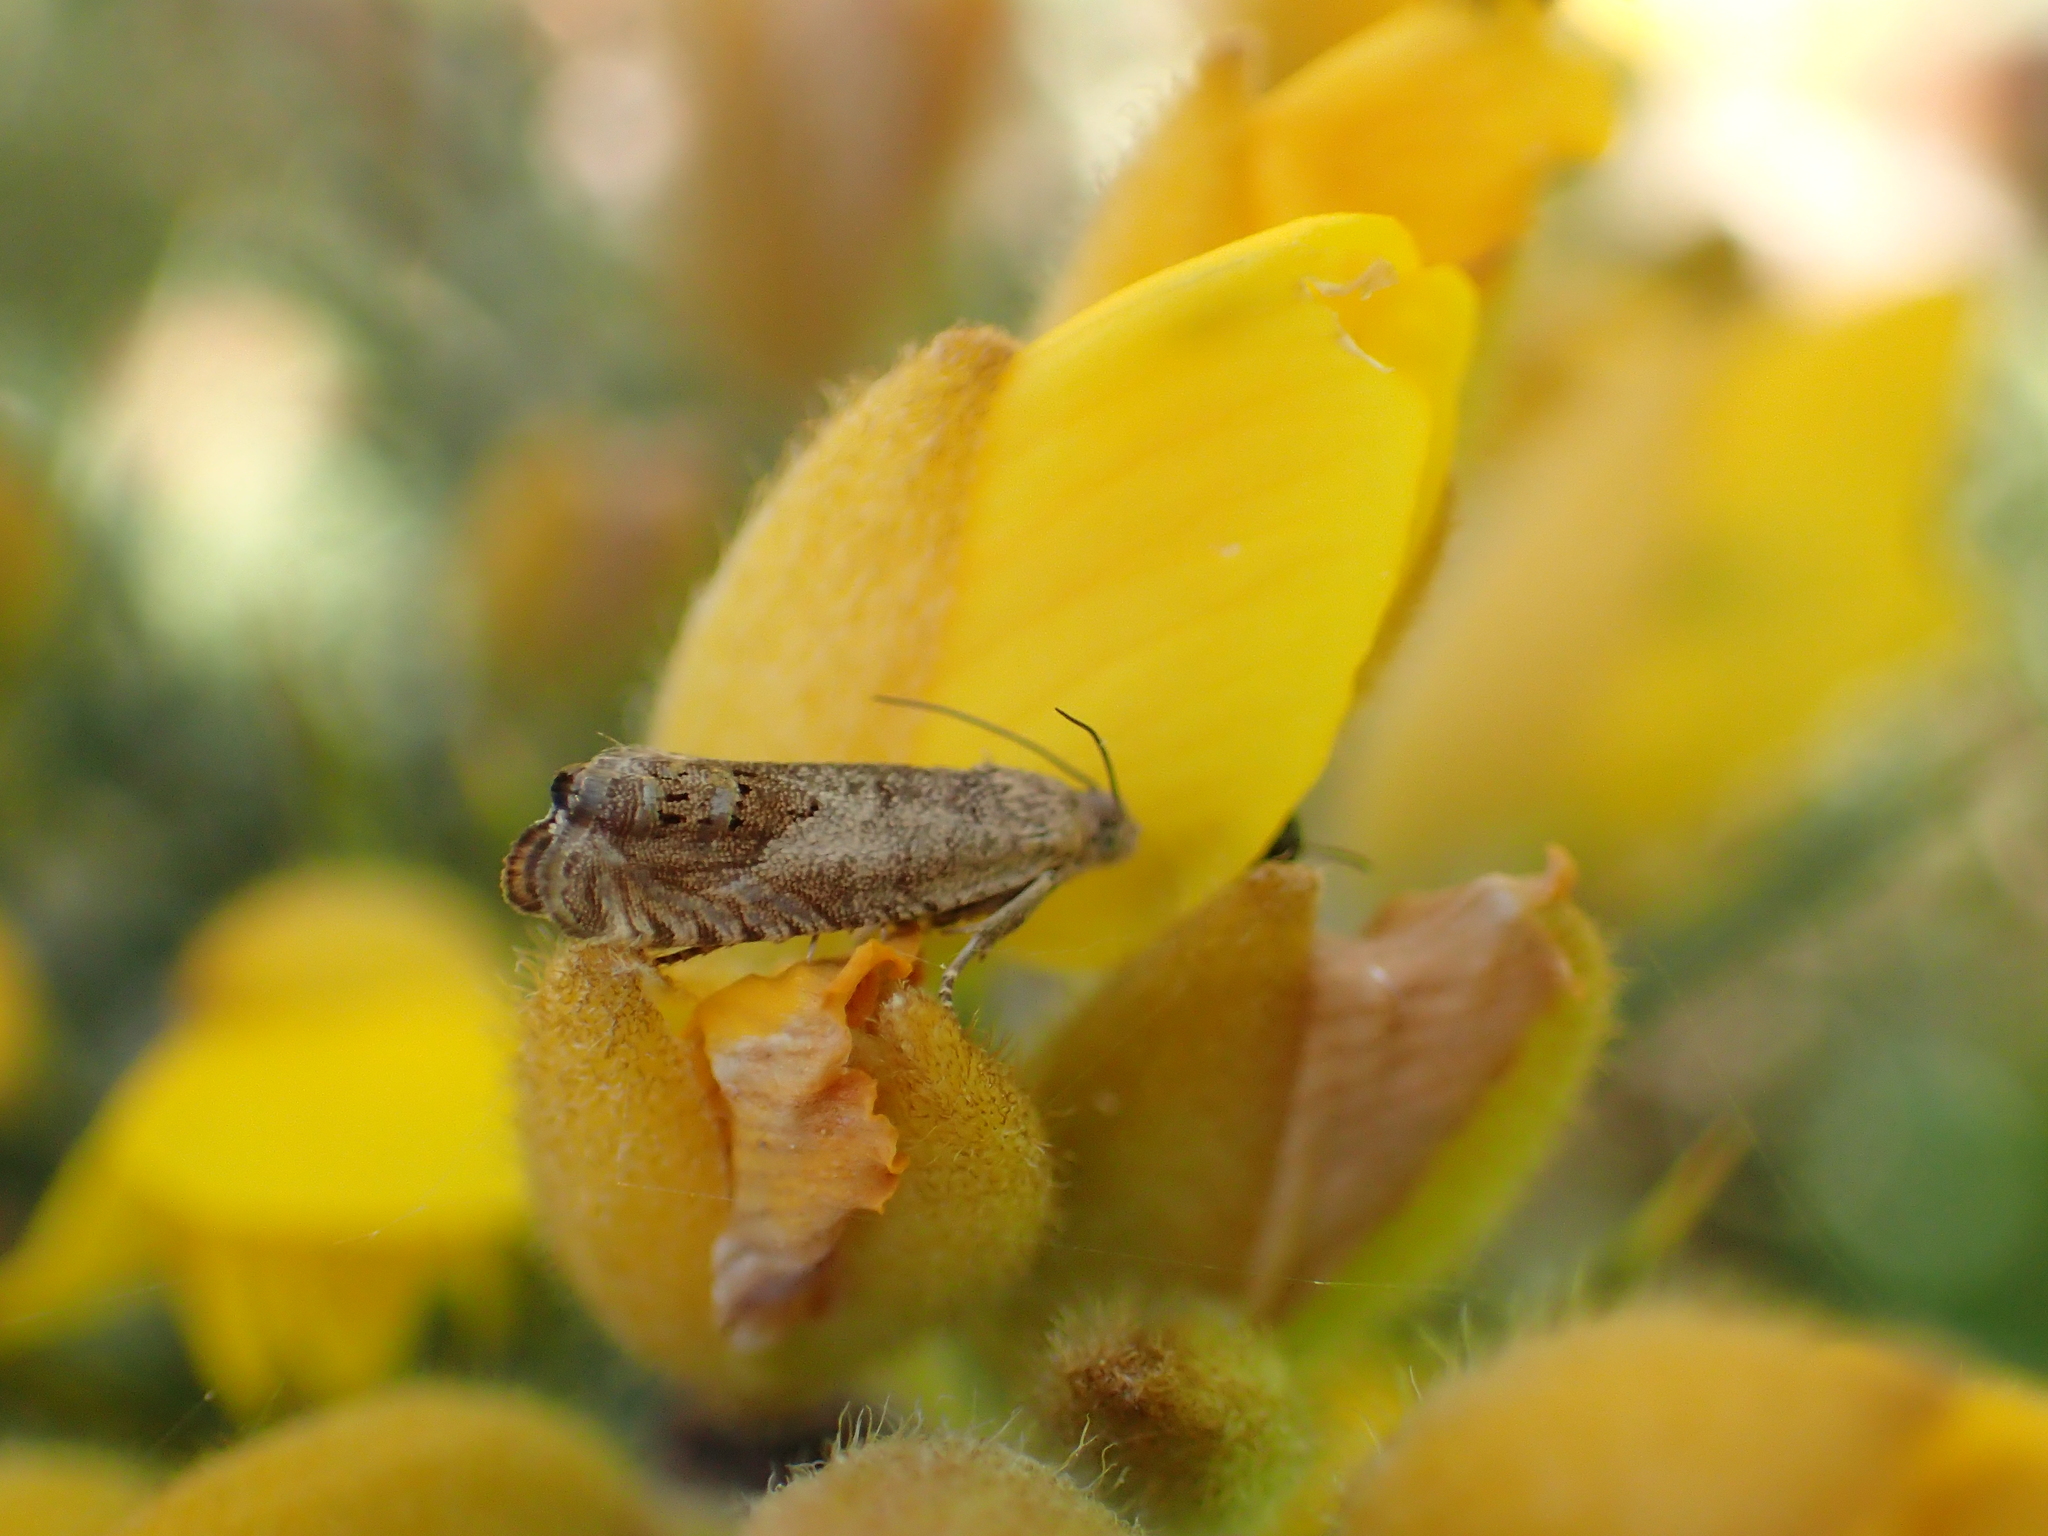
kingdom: Animalia
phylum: Arthropoda
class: Insecta
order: Lepidoptera
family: Tortricidae
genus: Cydia
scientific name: Cydia succedana
